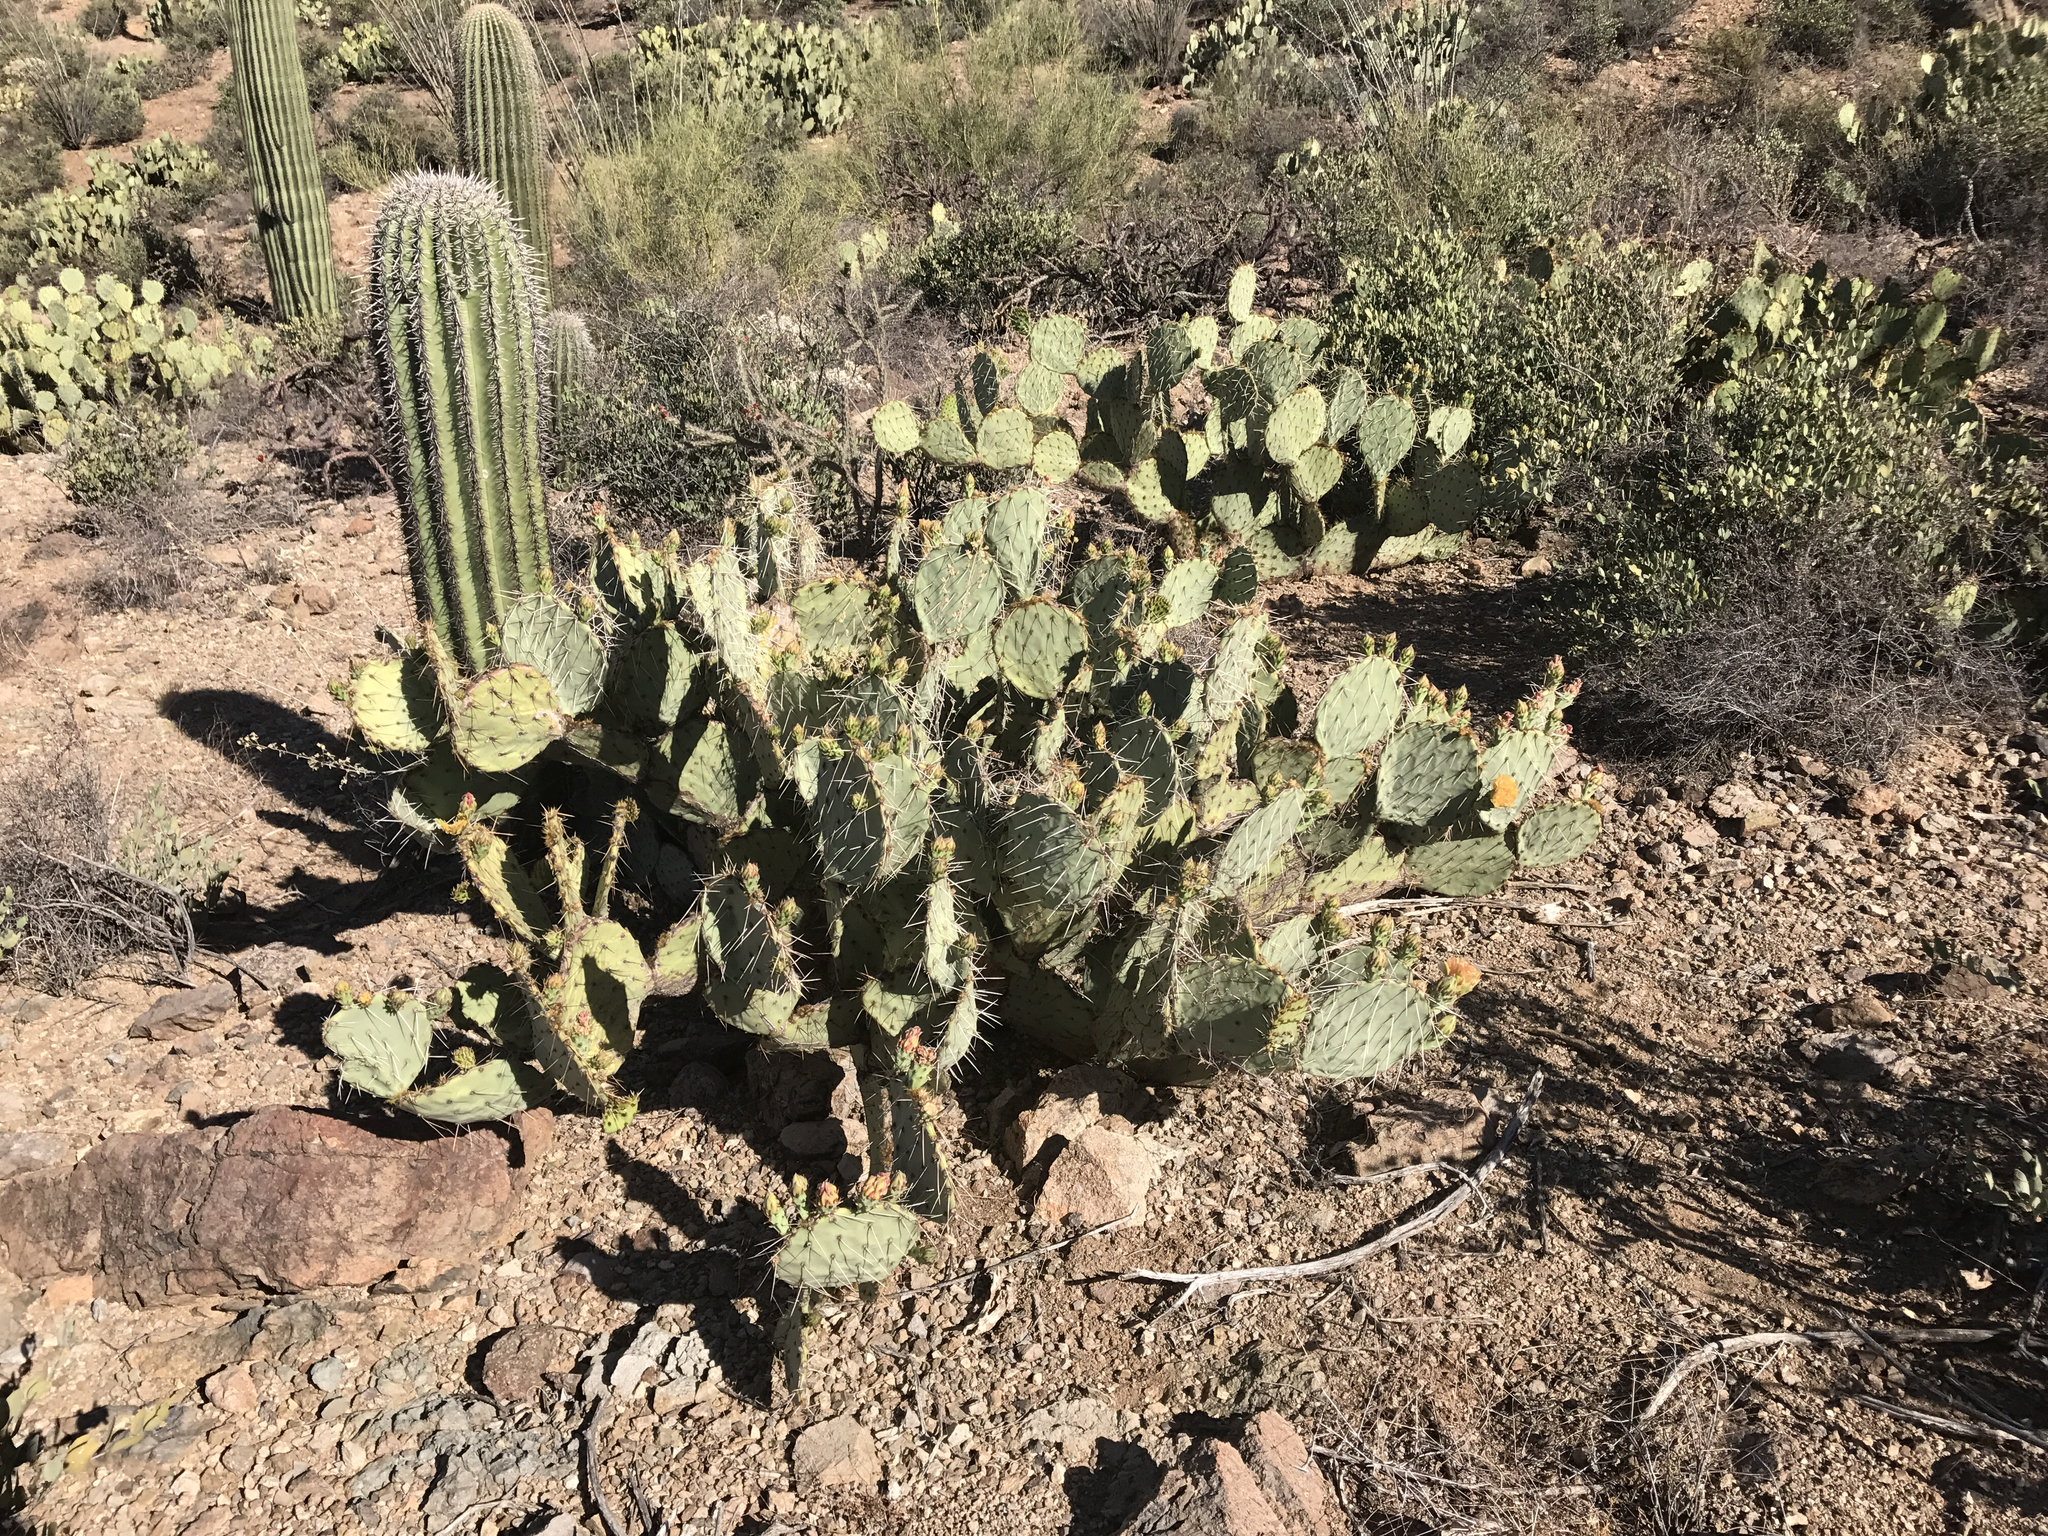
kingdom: Plantae
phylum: Tracheophyta
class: Magnoliopsida
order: Caryophyllales
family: Cactaceae
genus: Opuntia
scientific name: Opuntia engelmannii
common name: Cactus-apple
